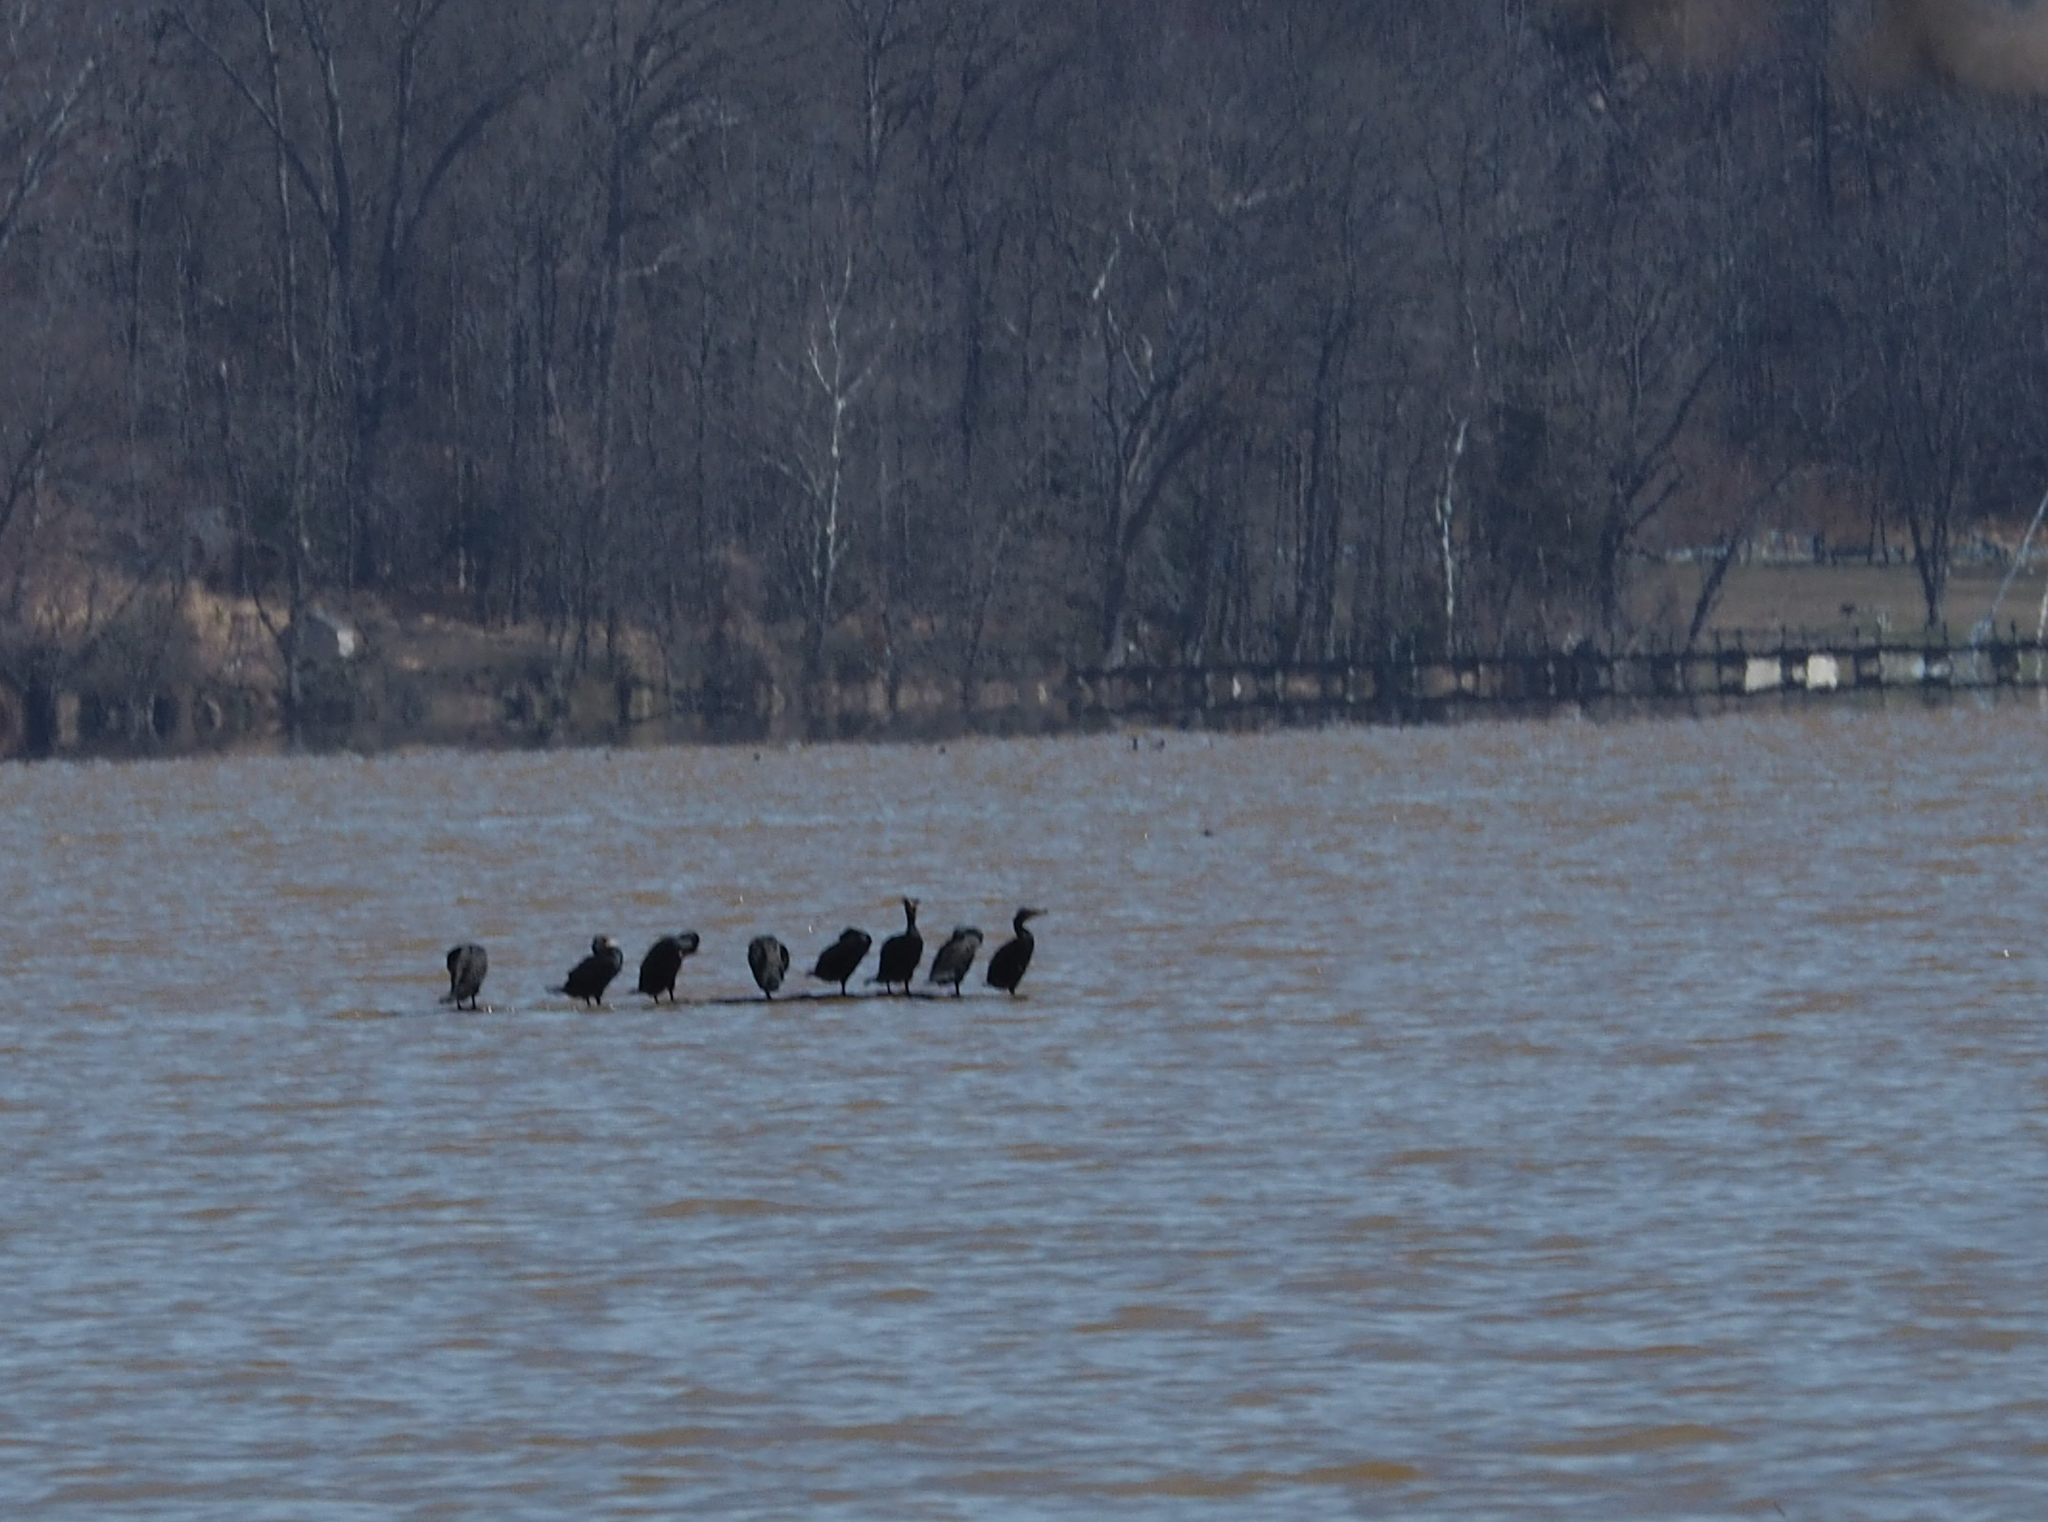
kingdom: Animalia
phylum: Chordata
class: Aves
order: Suliformes
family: Phalacrocoracidae
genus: Phalacrocorax
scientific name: Phalacrocorax auritus
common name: Double-crested cormorant
